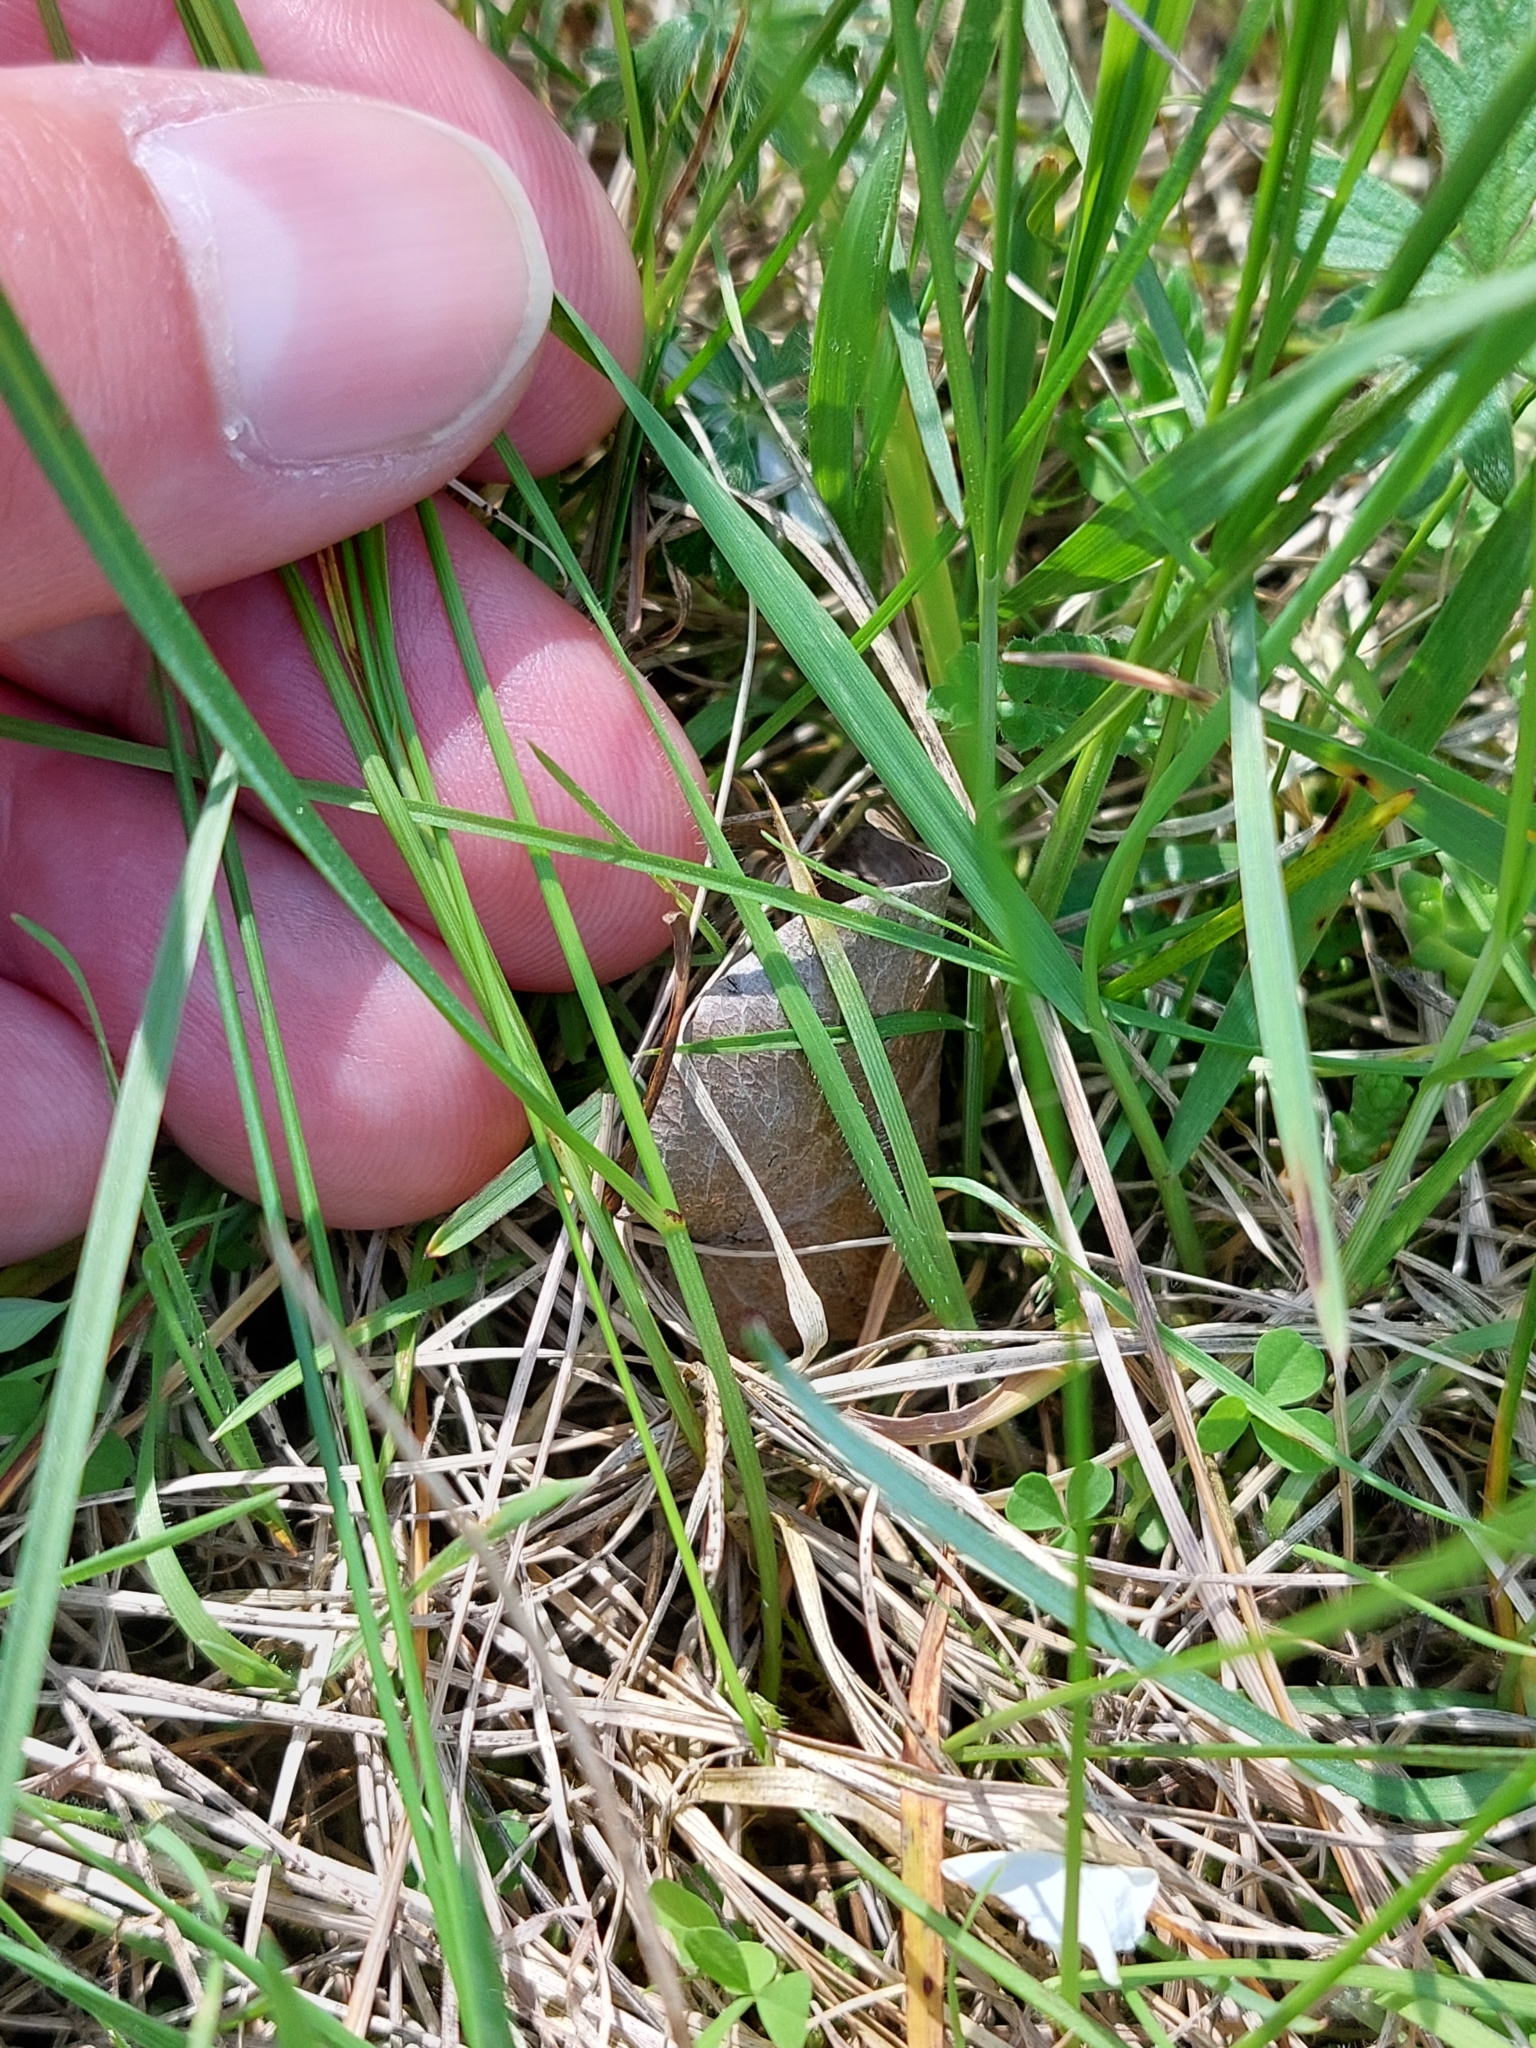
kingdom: Plantae
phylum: Tracheophyta
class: Liliopsida
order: Poales
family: Cyperaceae
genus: Carex
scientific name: Carex praecox
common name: Early sedge
